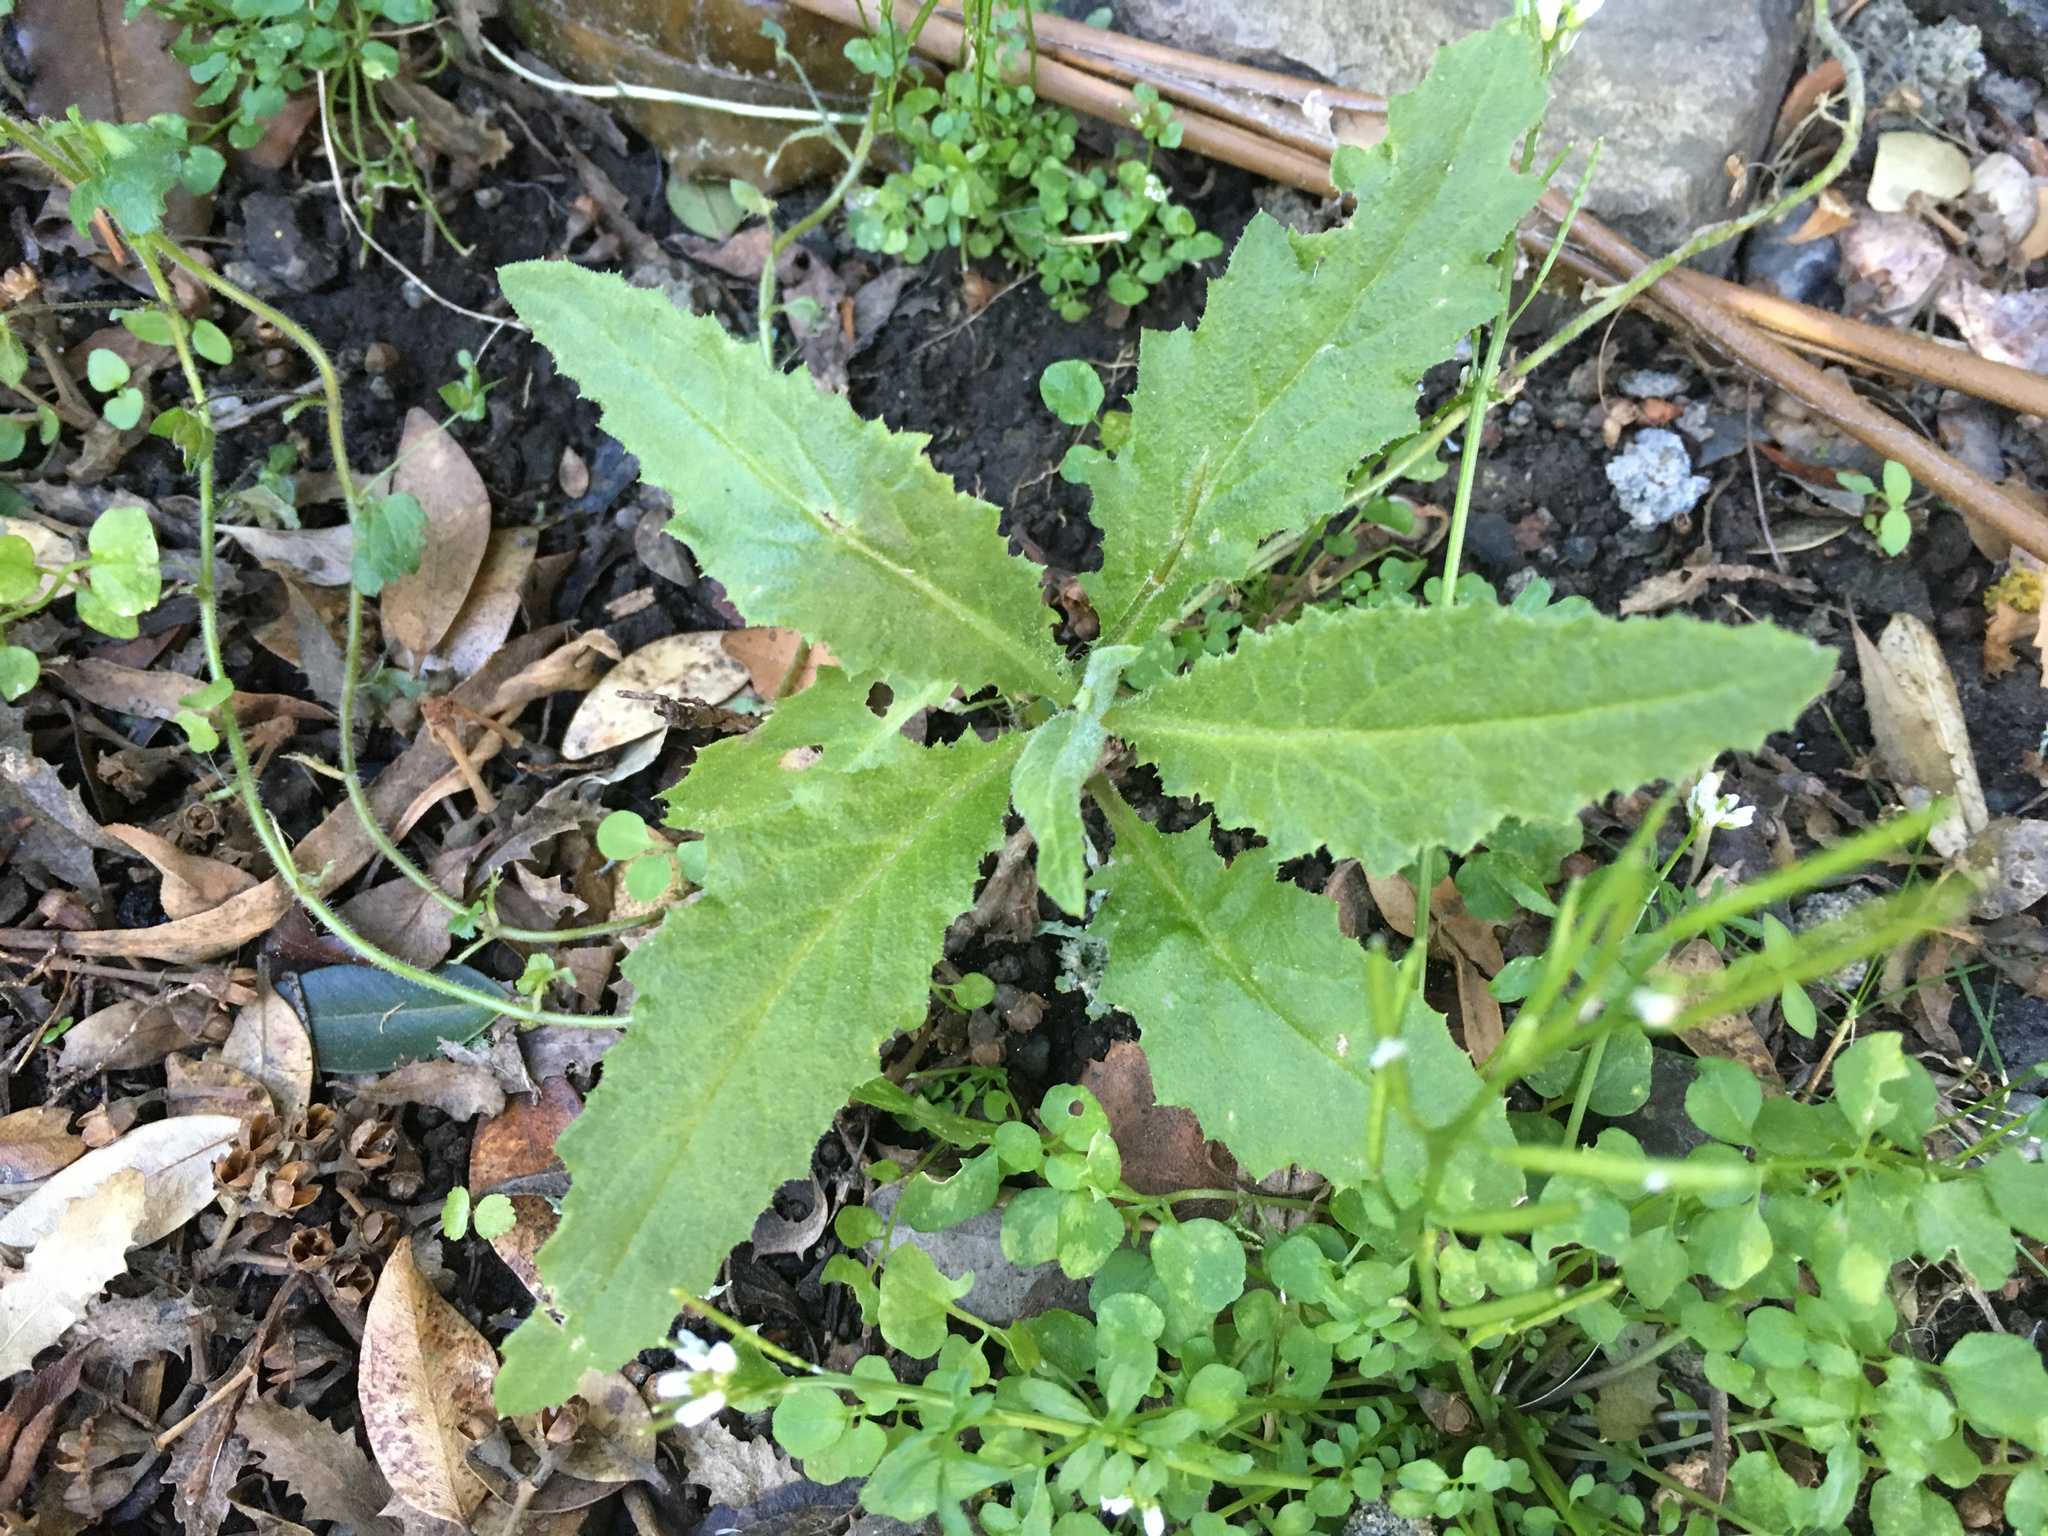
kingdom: Plantae
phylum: Tracheophyta
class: Magnoliopsida
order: Asterales
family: Asteraceae
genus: Senecio
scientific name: Senecio minimus
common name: Toothed fireweed
